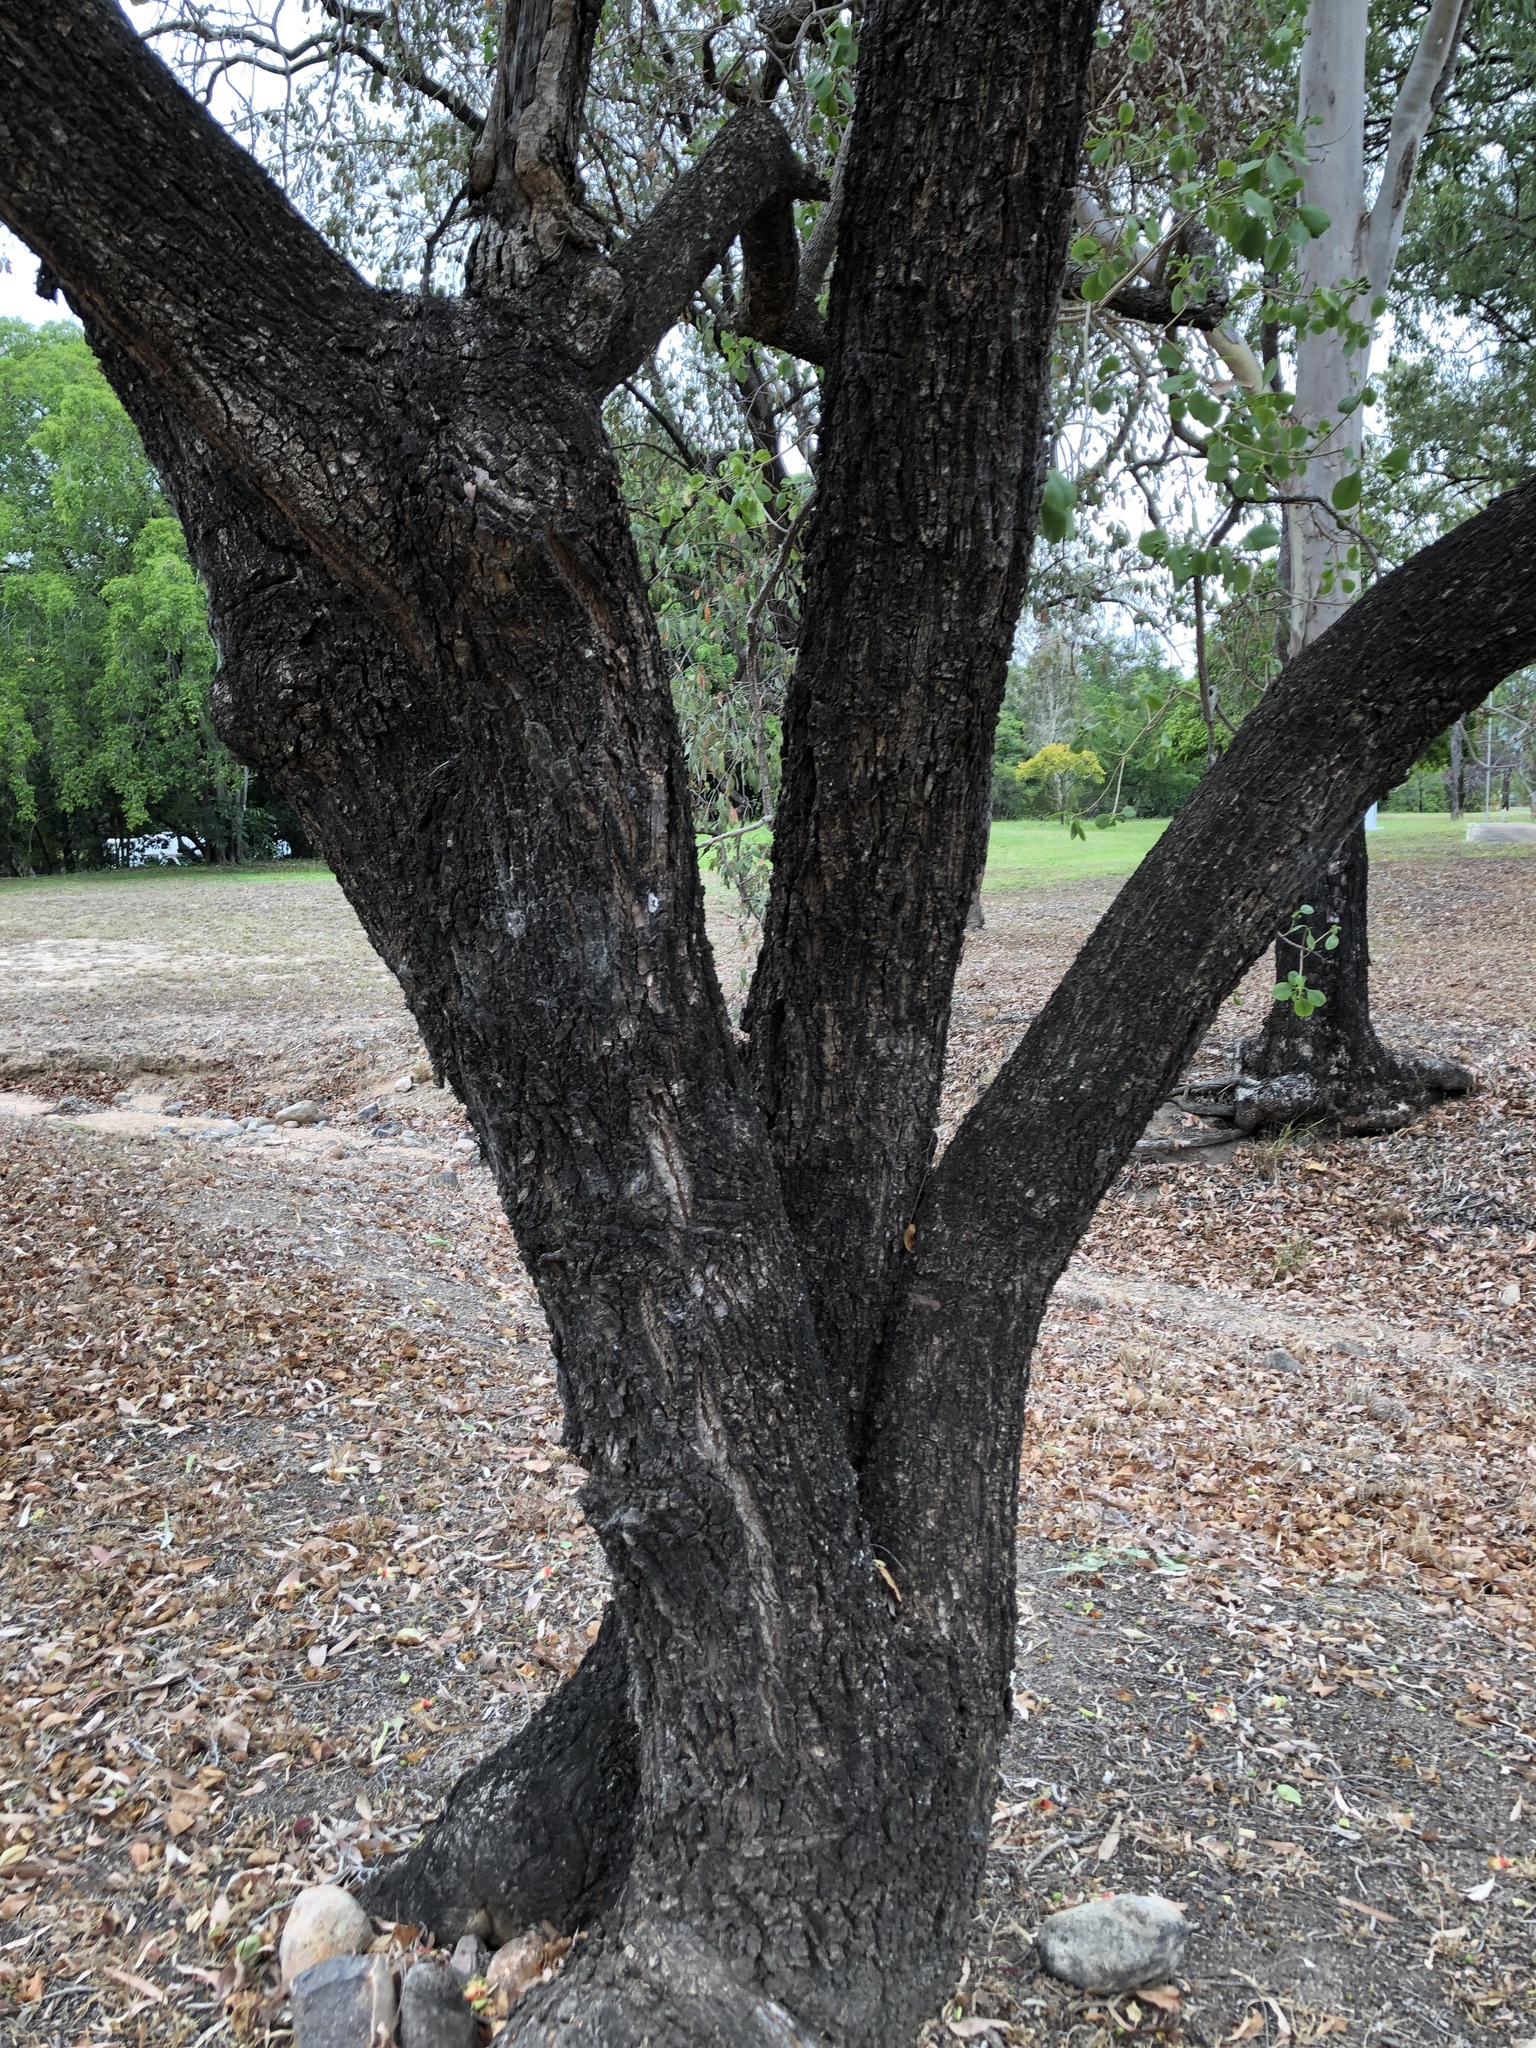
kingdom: Plantae
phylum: Tracheophyta
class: Magnoliopsida
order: Ericales
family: Lecythidaceae
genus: Planchonia
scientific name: Planchonia careya
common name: Cockatoo-apple
